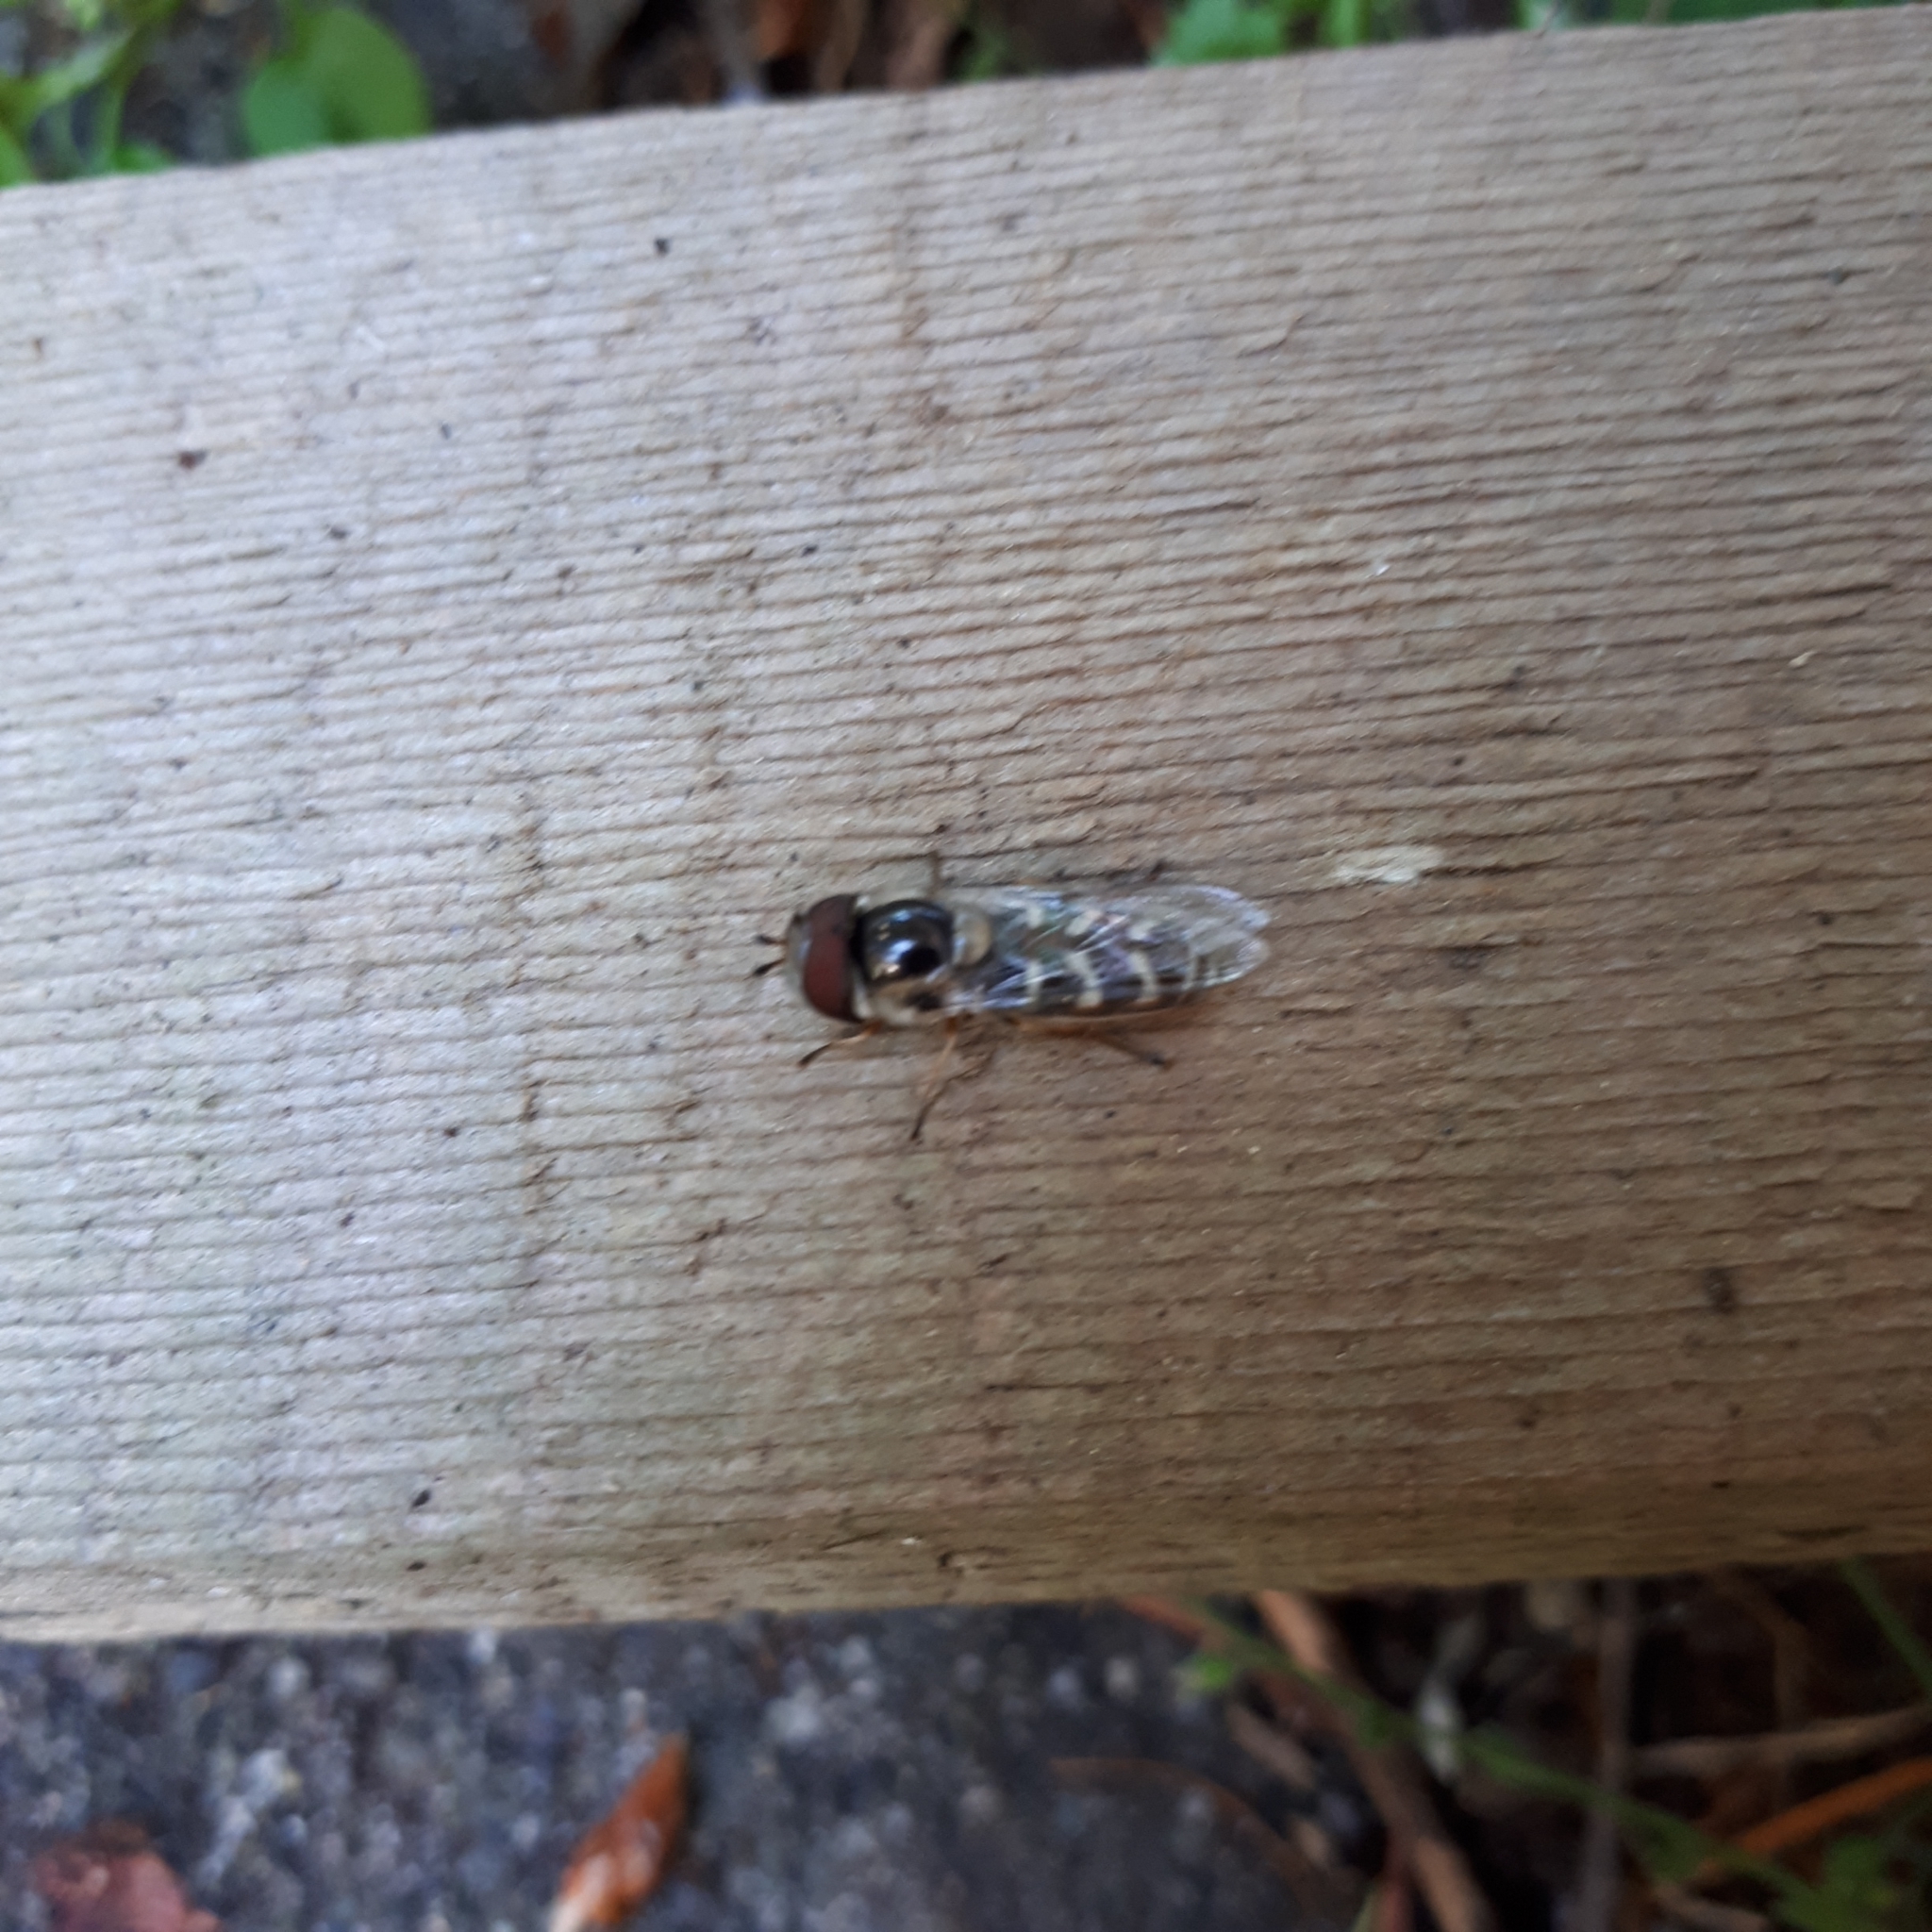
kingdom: Animalia
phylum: Arthropoda
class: Insecta
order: Diptera
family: Syrphidae
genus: Scaeva
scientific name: Scaeva affinis
